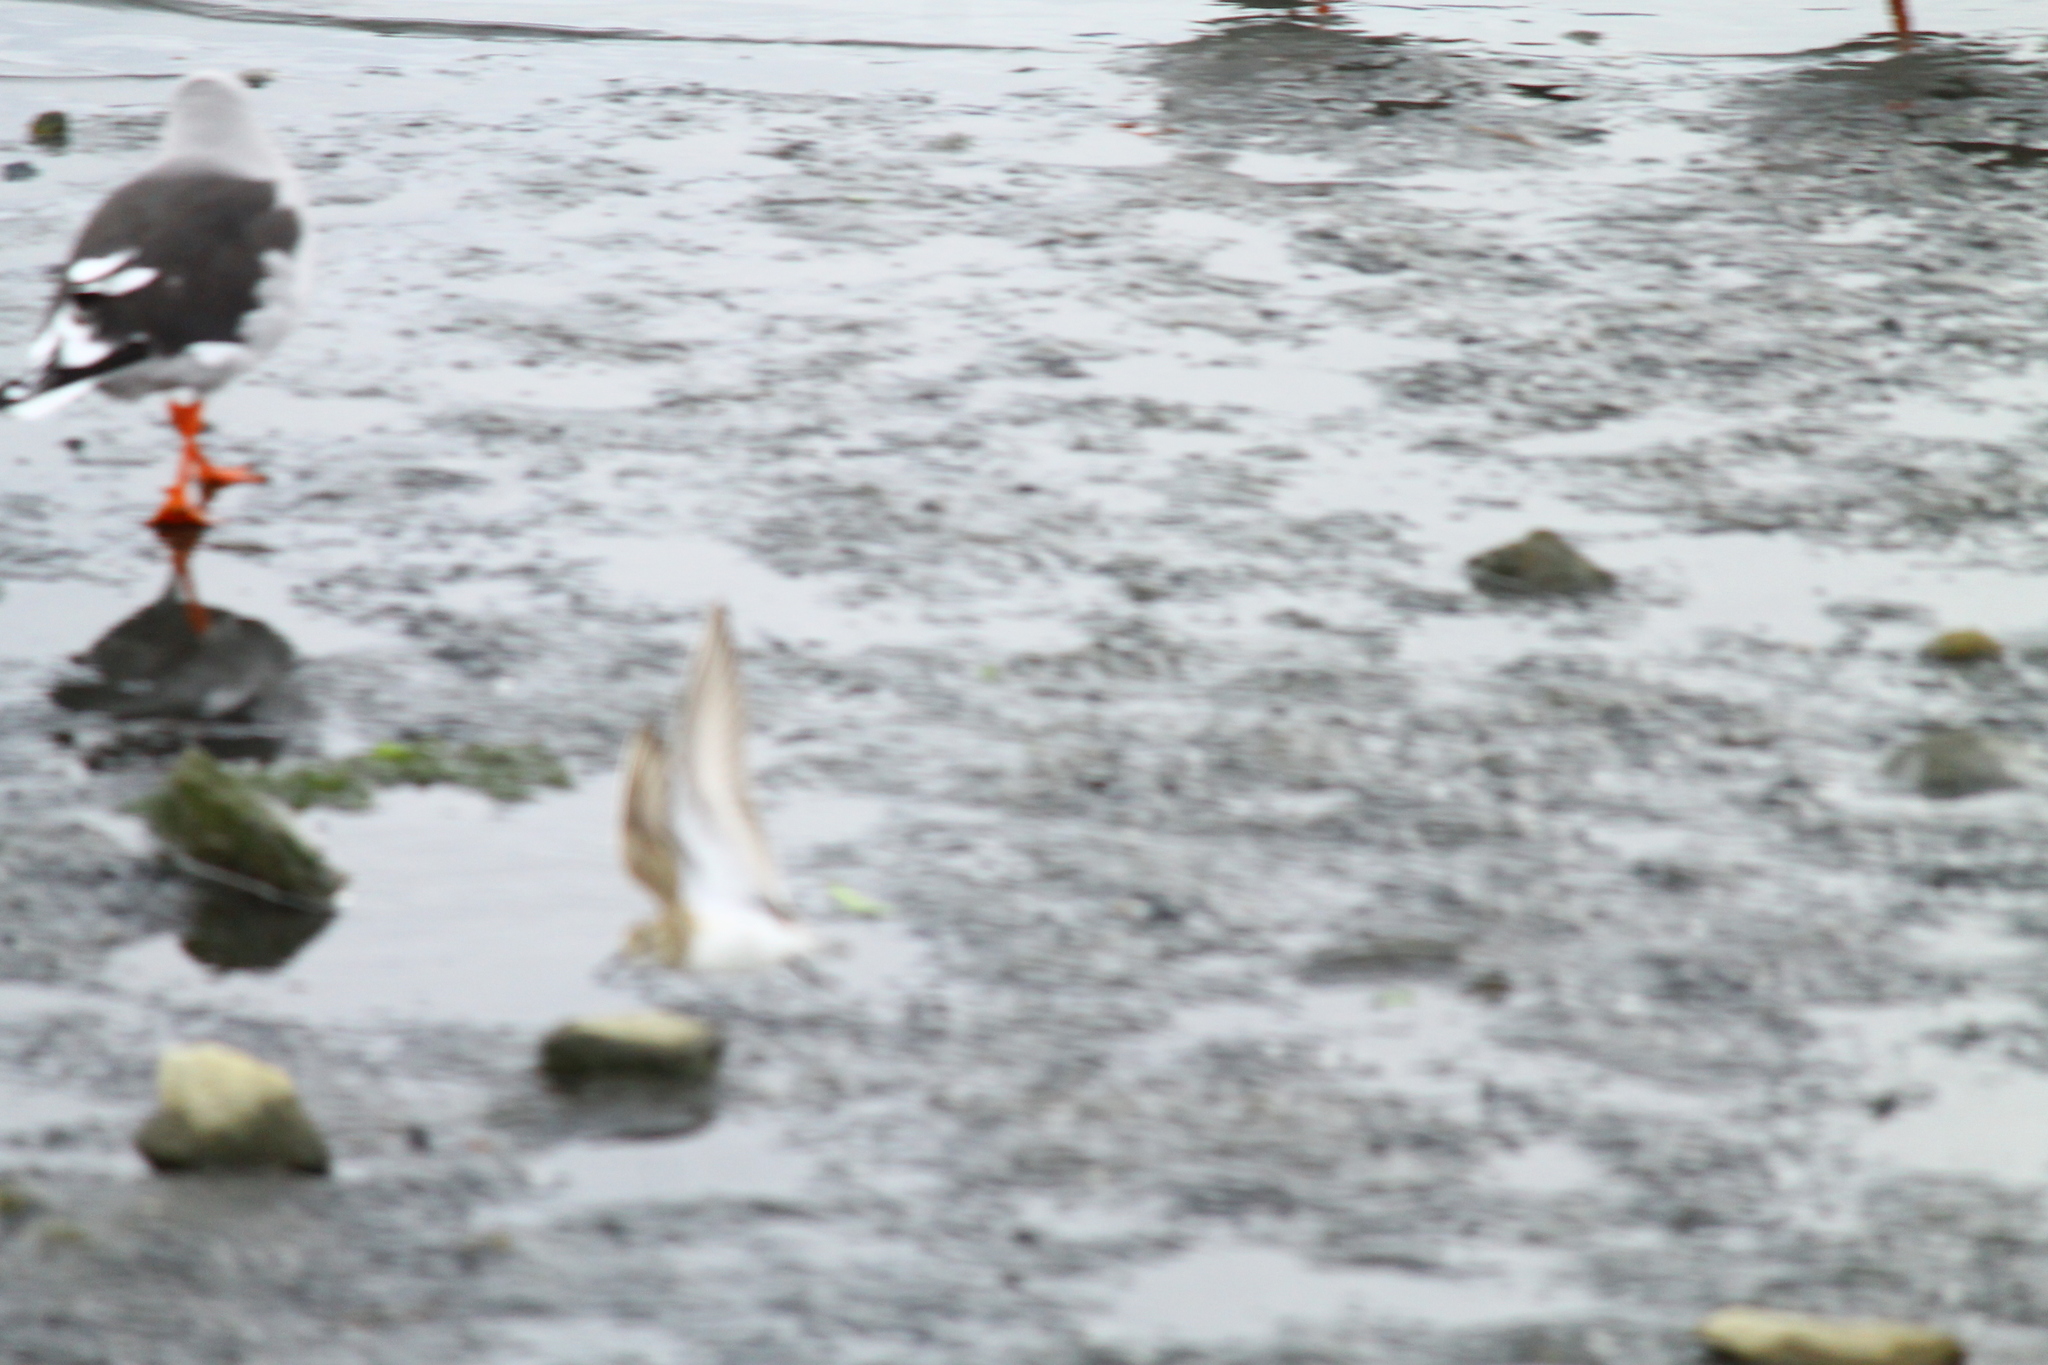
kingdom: Animalia
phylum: Chordata
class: Aves
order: Charadriiformes
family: Scolopacidae
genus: Calidris
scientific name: Calidris bairdii
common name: Baird's sandpiper
